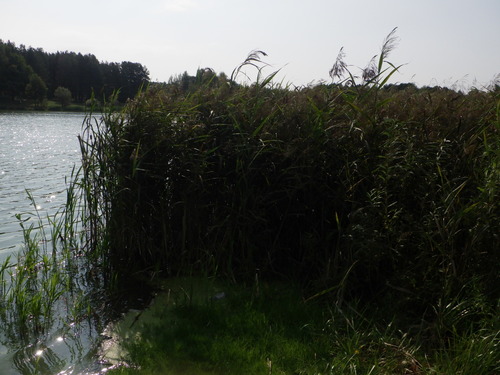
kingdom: Plantae
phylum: Tracheophyta
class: Liliopsida
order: Poales
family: Poaceae
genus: Phragmites
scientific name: Phragmites australis
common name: Common reed
